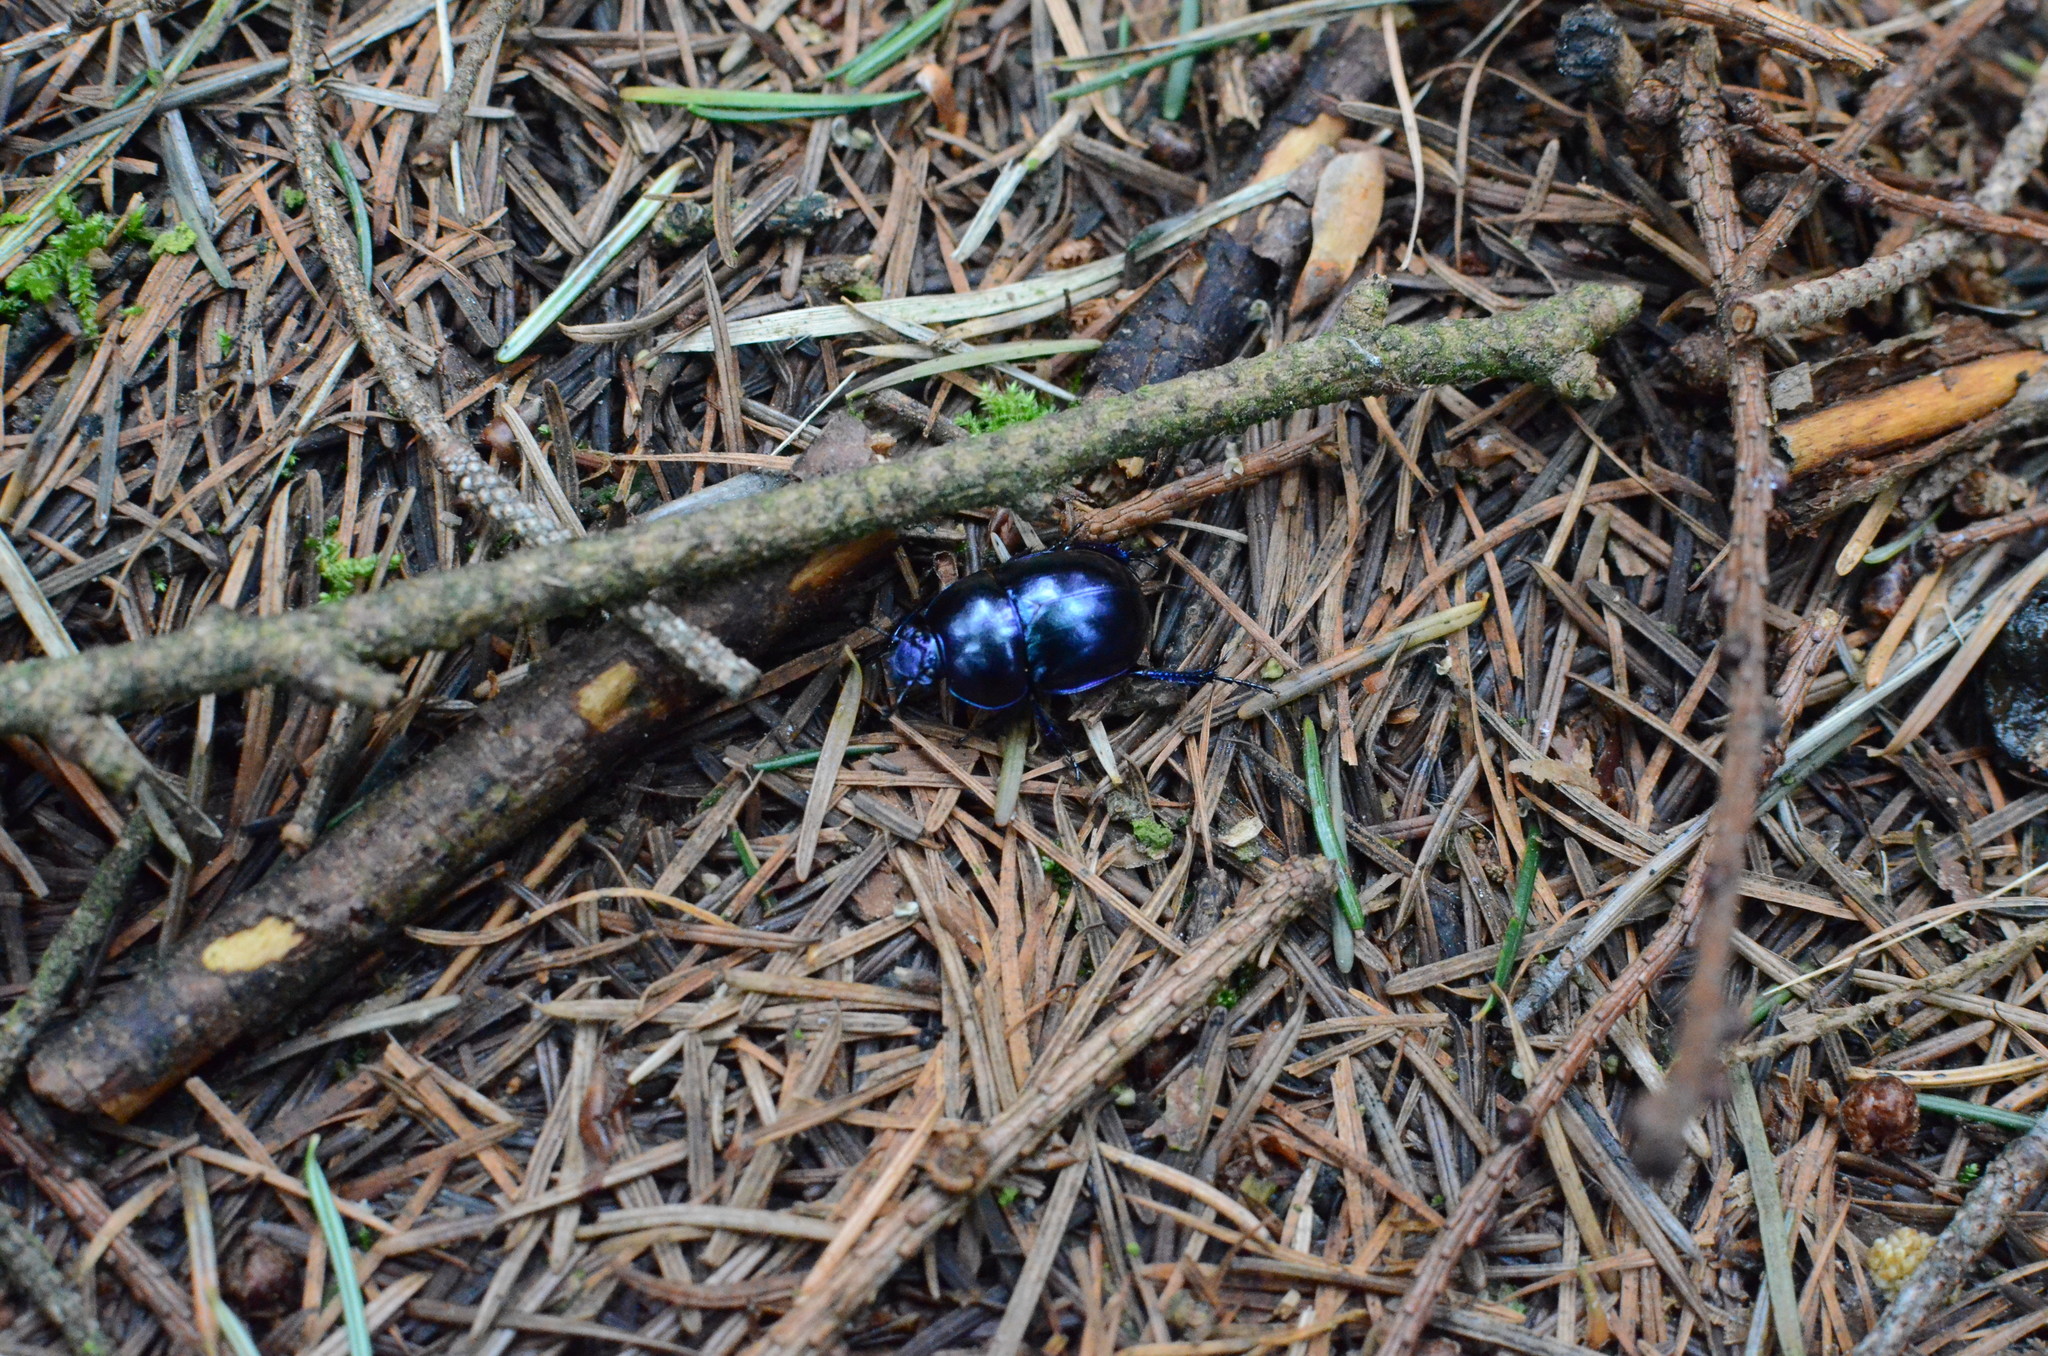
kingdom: Animalia
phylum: Arthropoda
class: Insecta
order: Coleoptera
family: Geotrupidae
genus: Trypocopris
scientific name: Trypocopris vernalis
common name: Spring dumbledor
